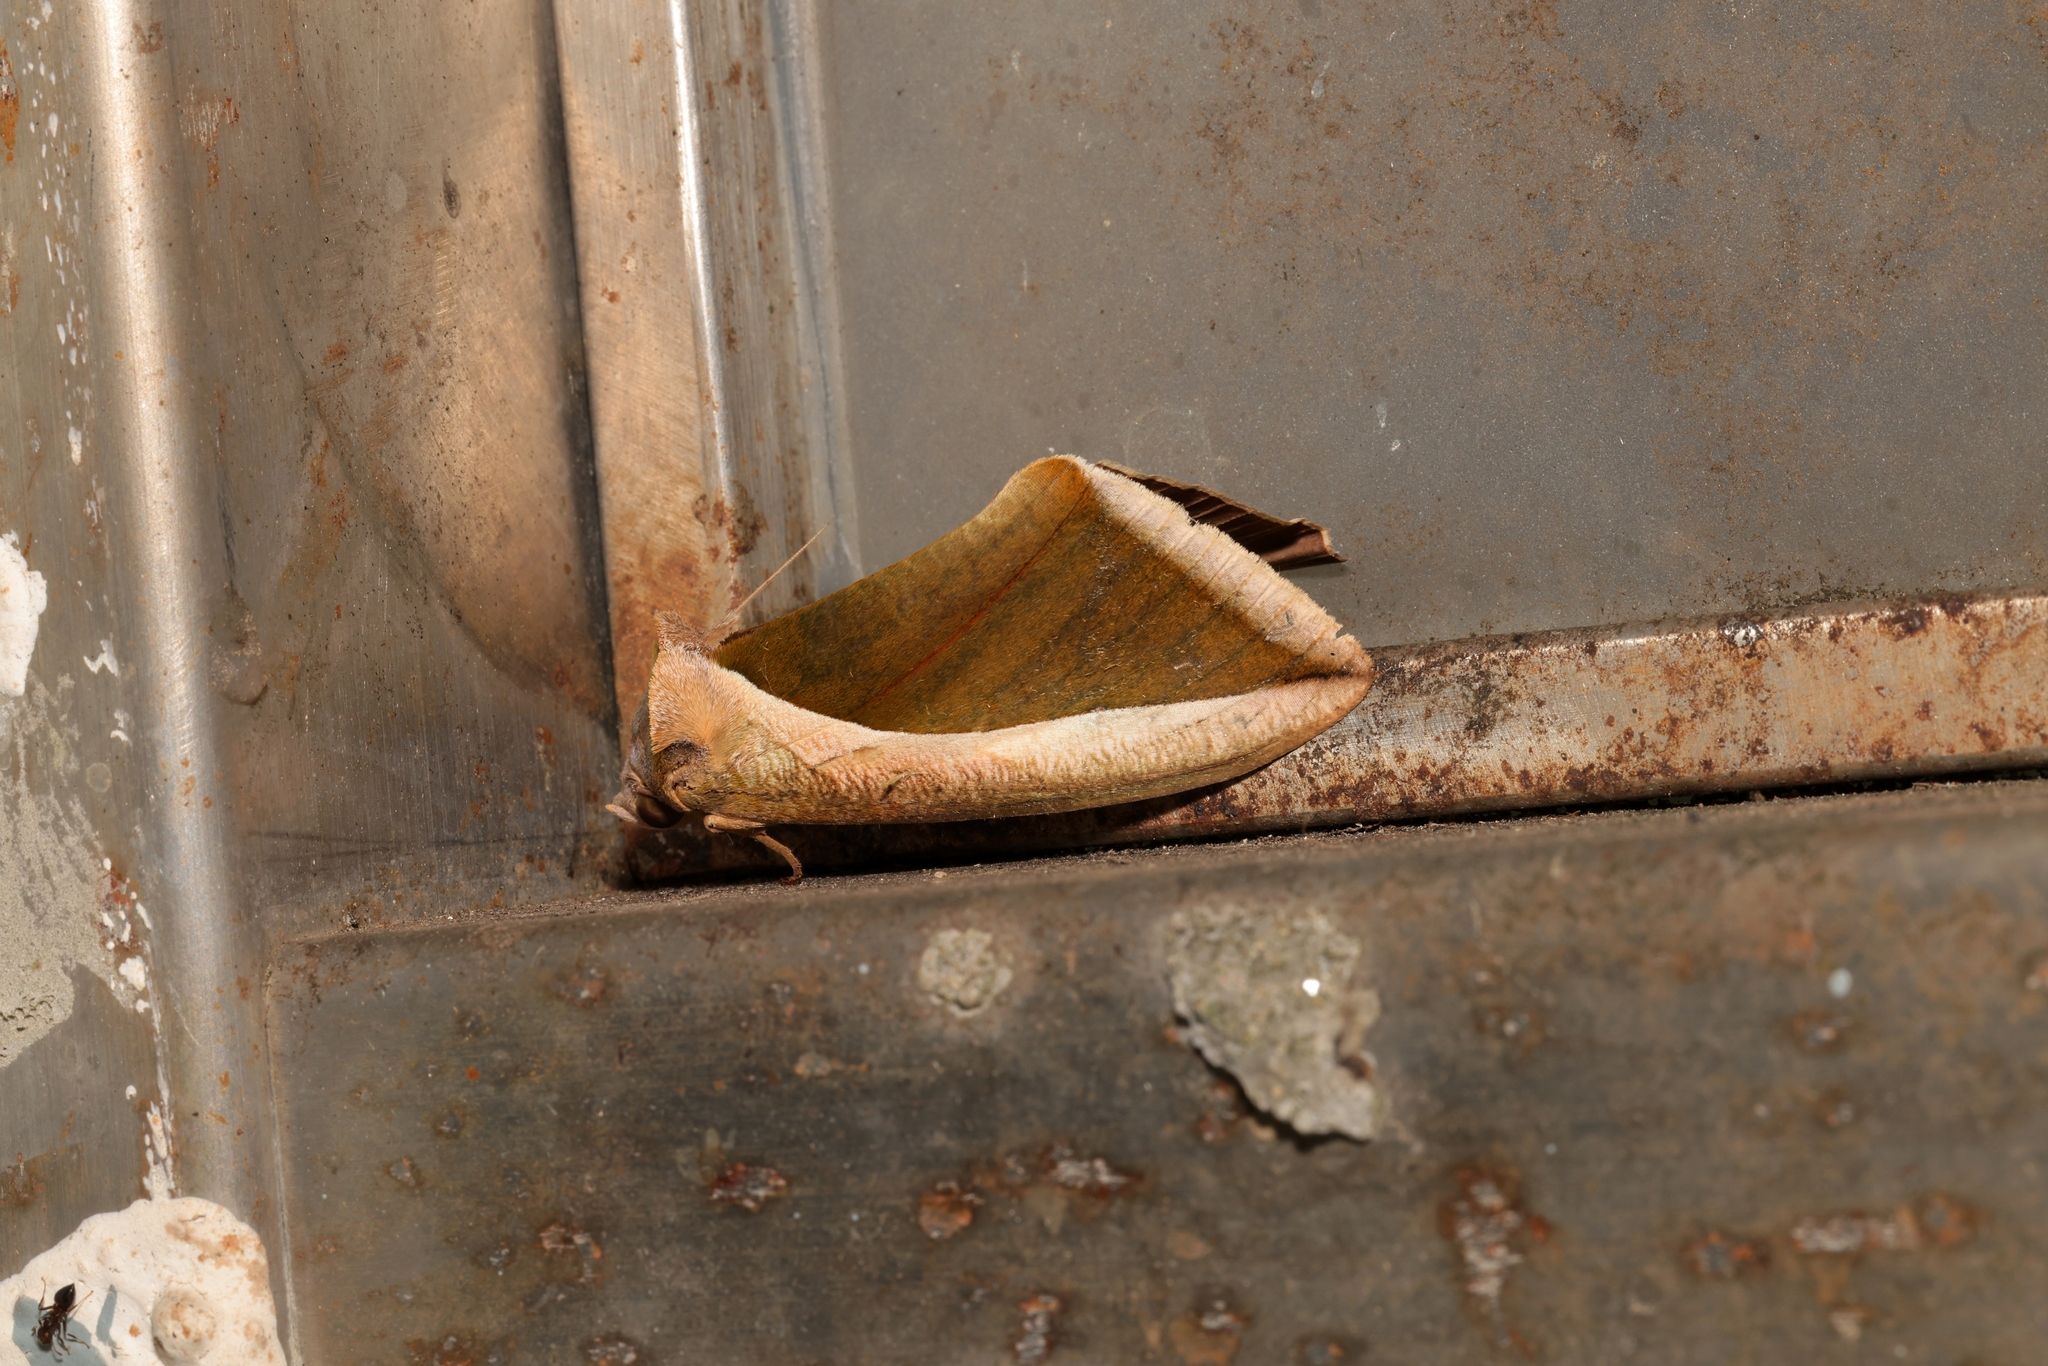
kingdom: Animalia
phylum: Arthropoda
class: Insecta
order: Lepidoptera
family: Erebidae
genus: Eudocima
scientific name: Eudocima salaminia
